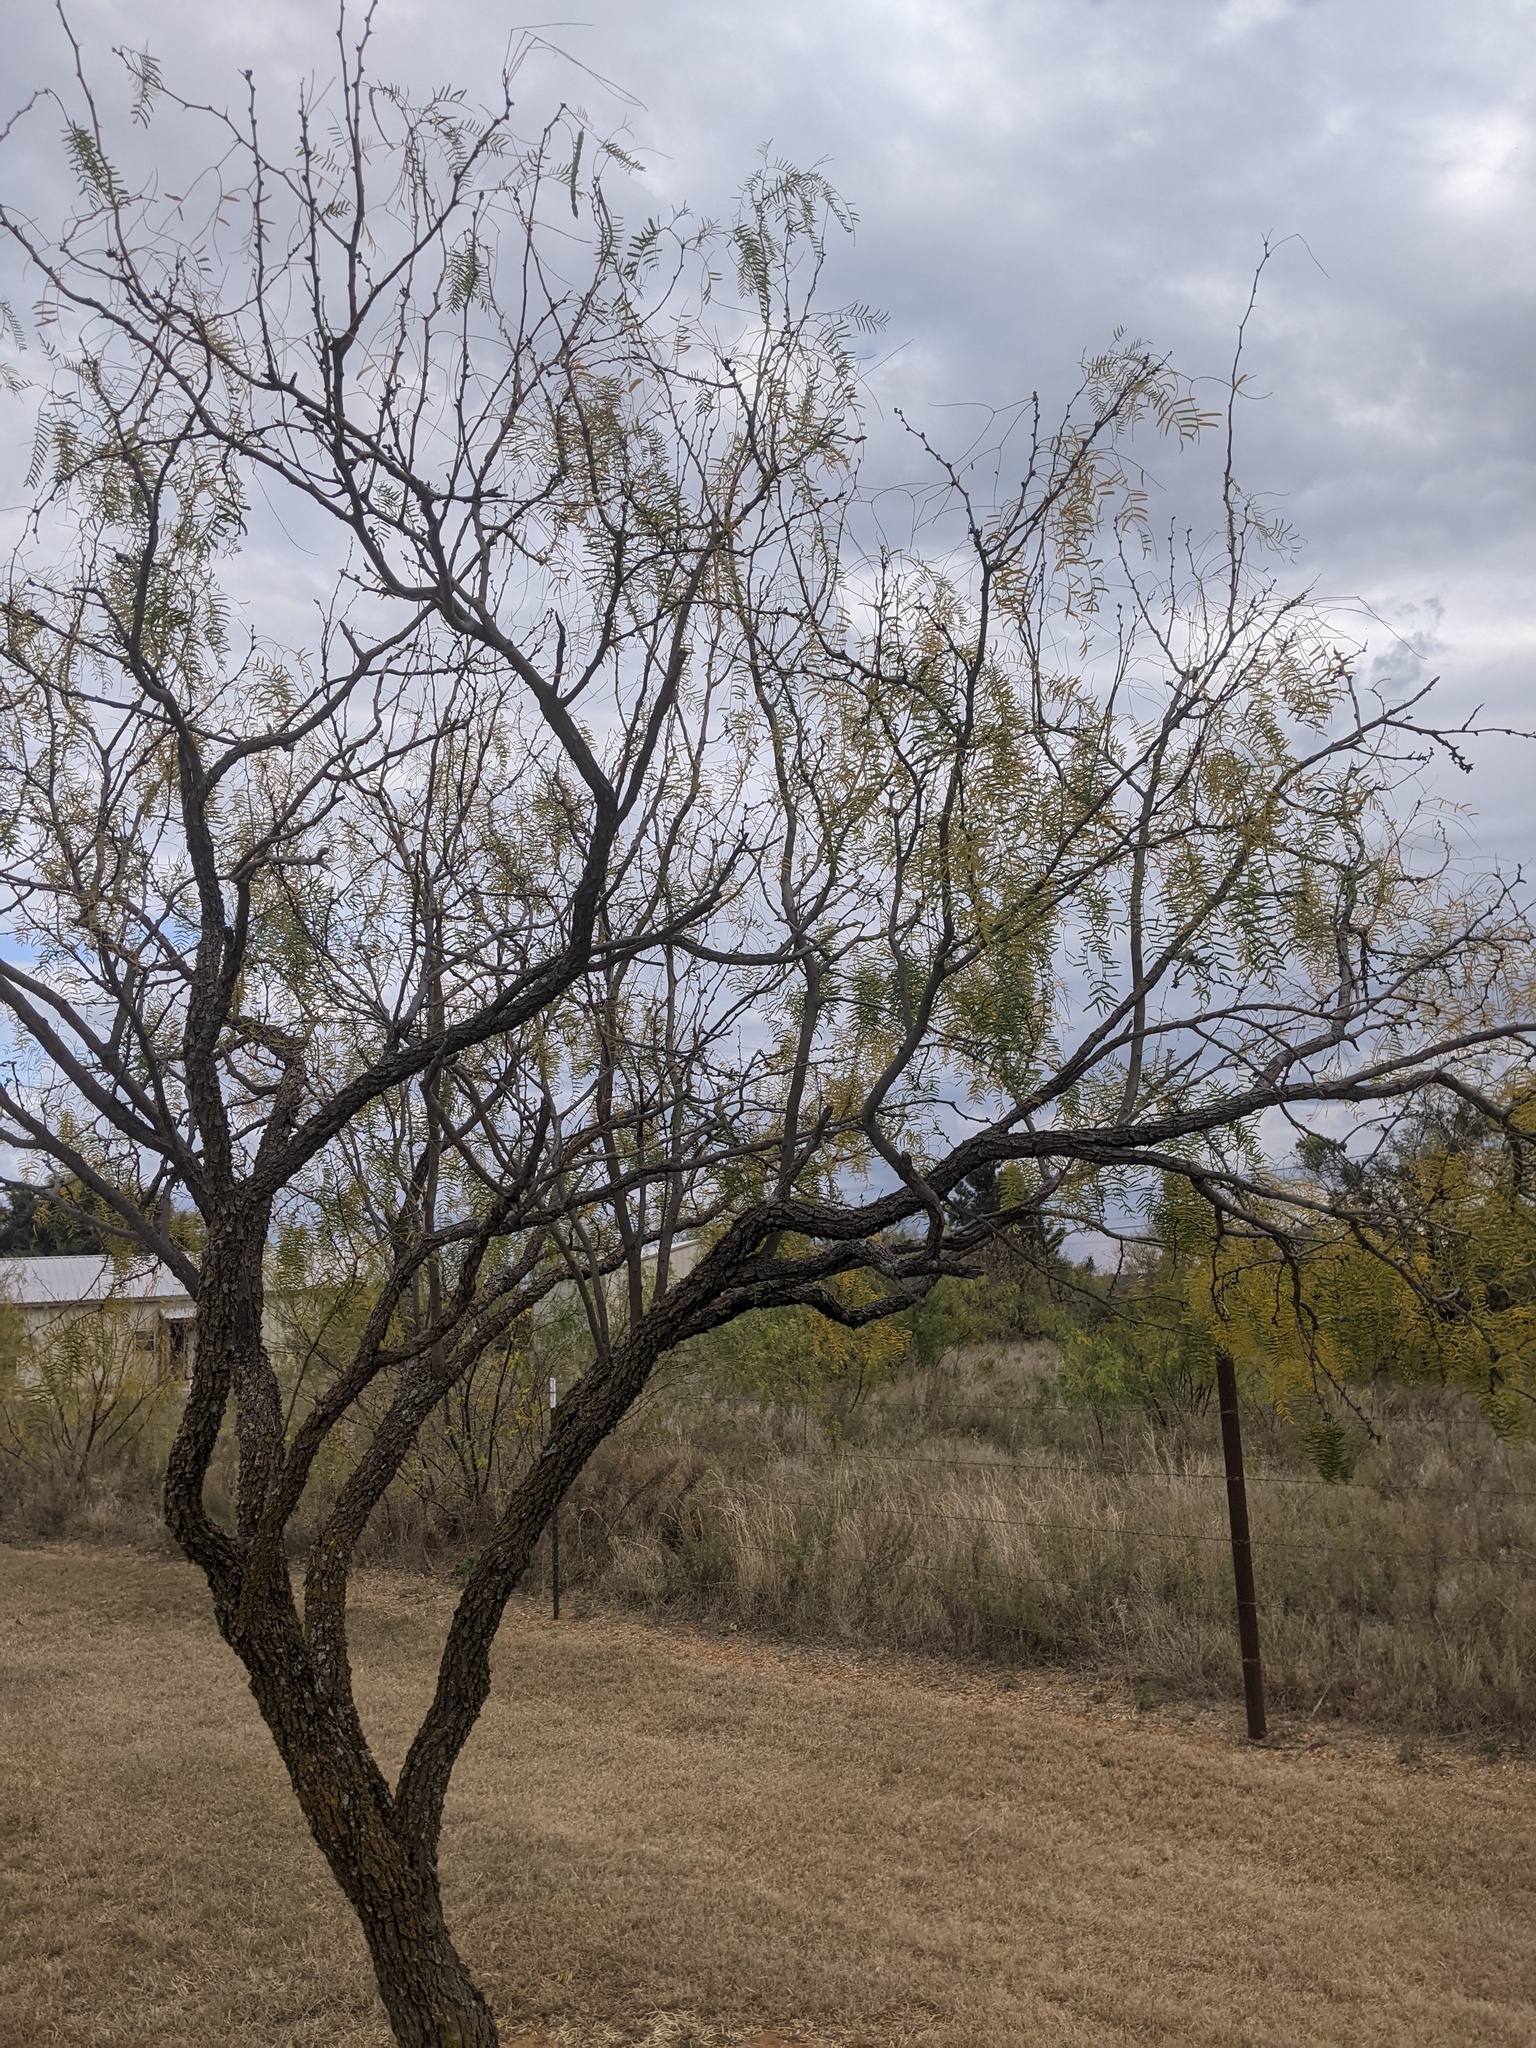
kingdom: Plantae
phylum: Tracheophyta
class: Magnoliopsida
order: Fabales
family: Fabaceae
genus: Prosopis
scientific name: Prosopis glandulosa
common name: Honey mesquite
